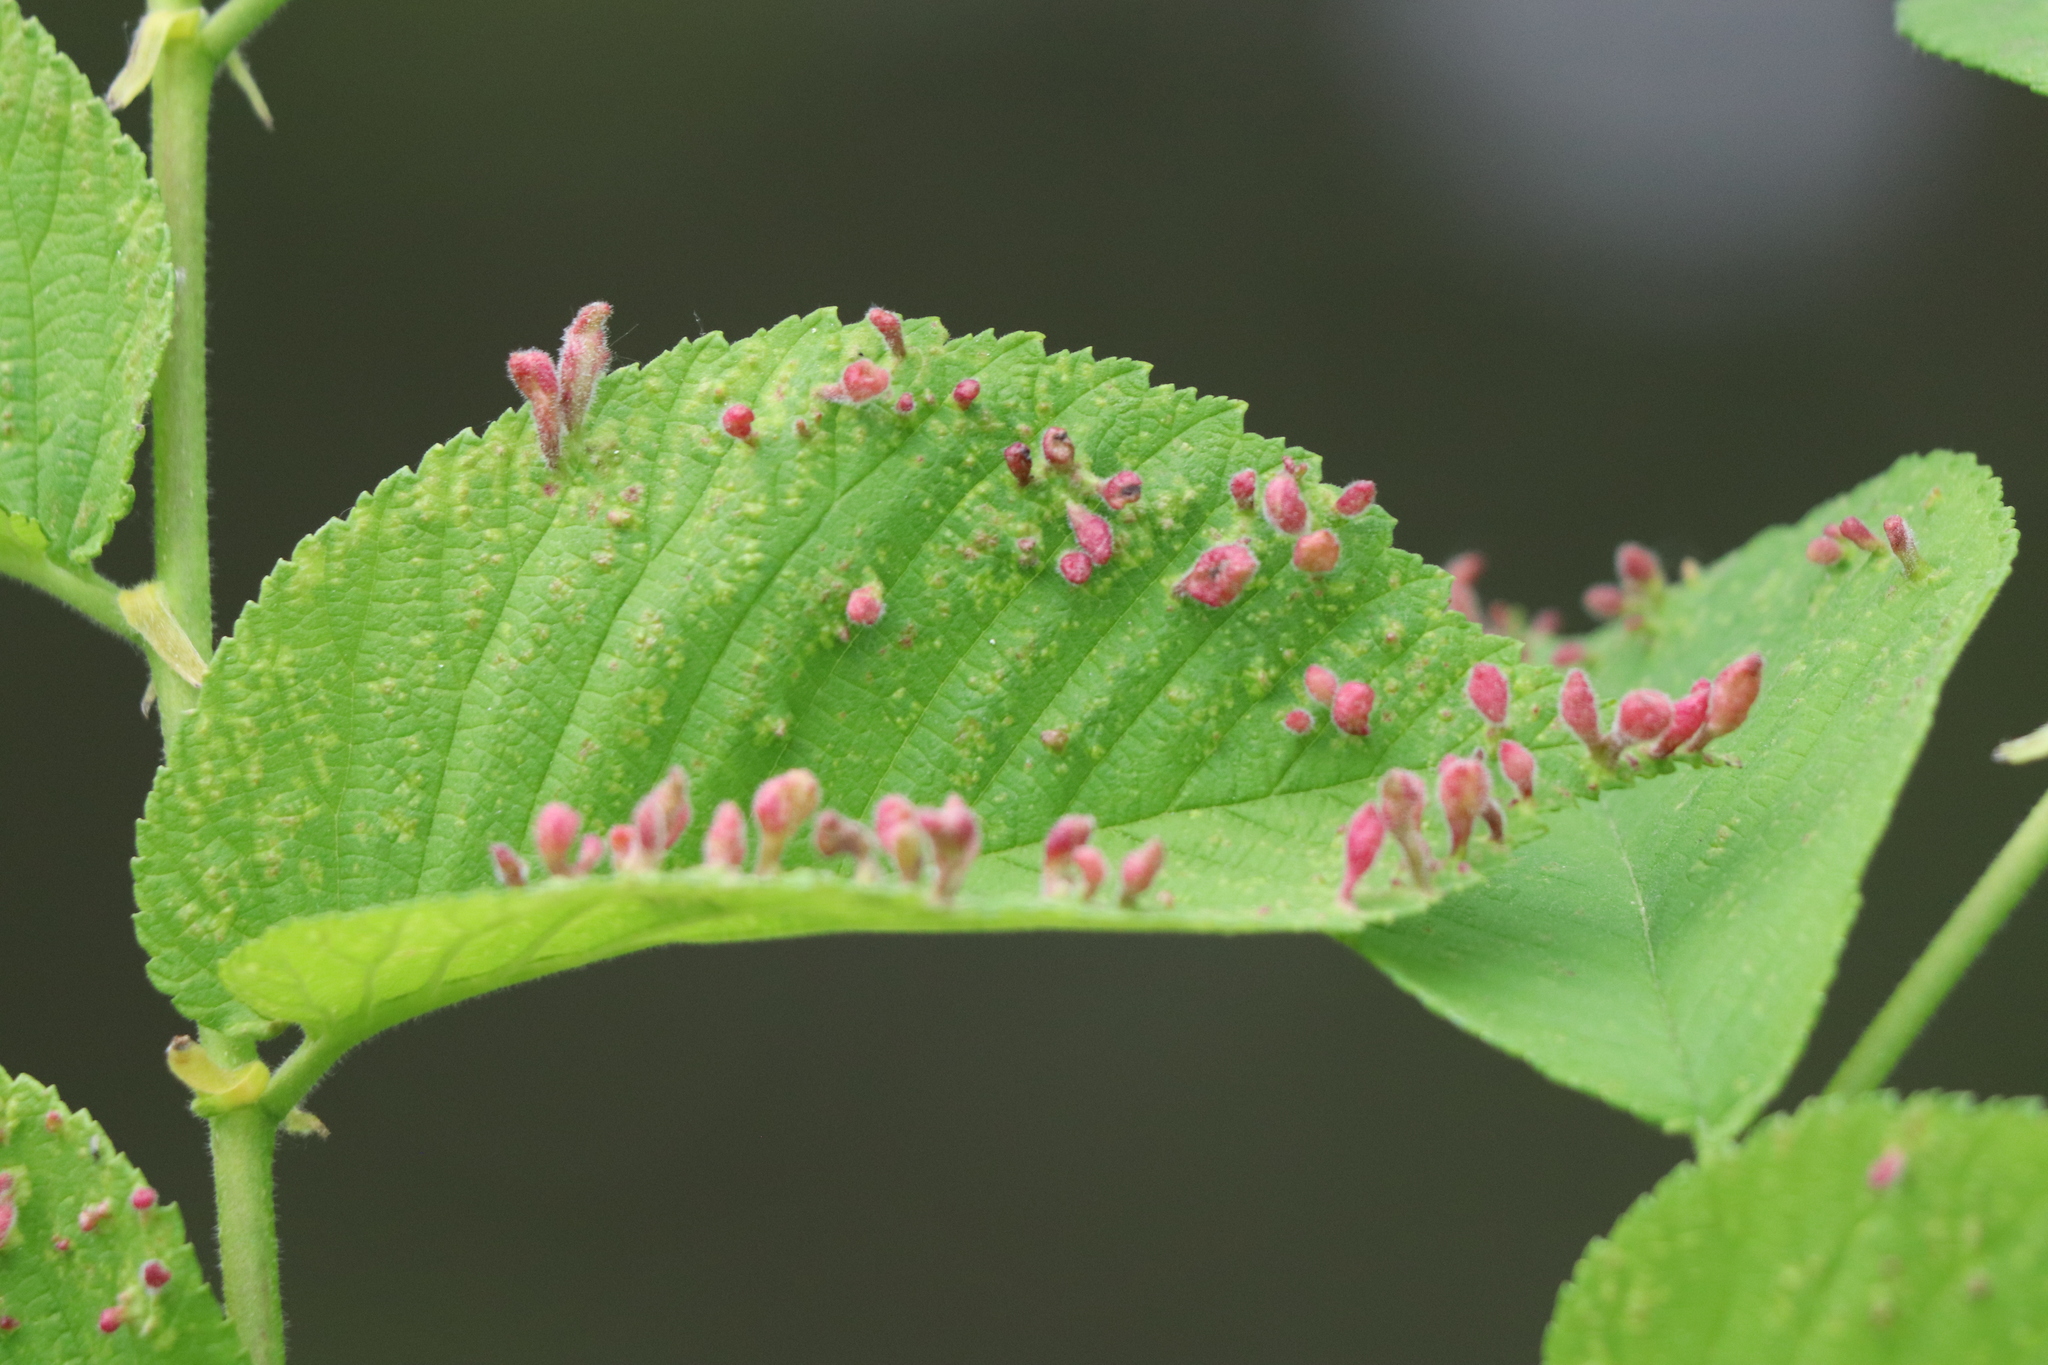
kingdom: Animalia
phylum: Arthropoda
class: Arachnida
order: Trombidiformes
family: Eriophyidae
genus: Aceria
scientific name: Aceria
